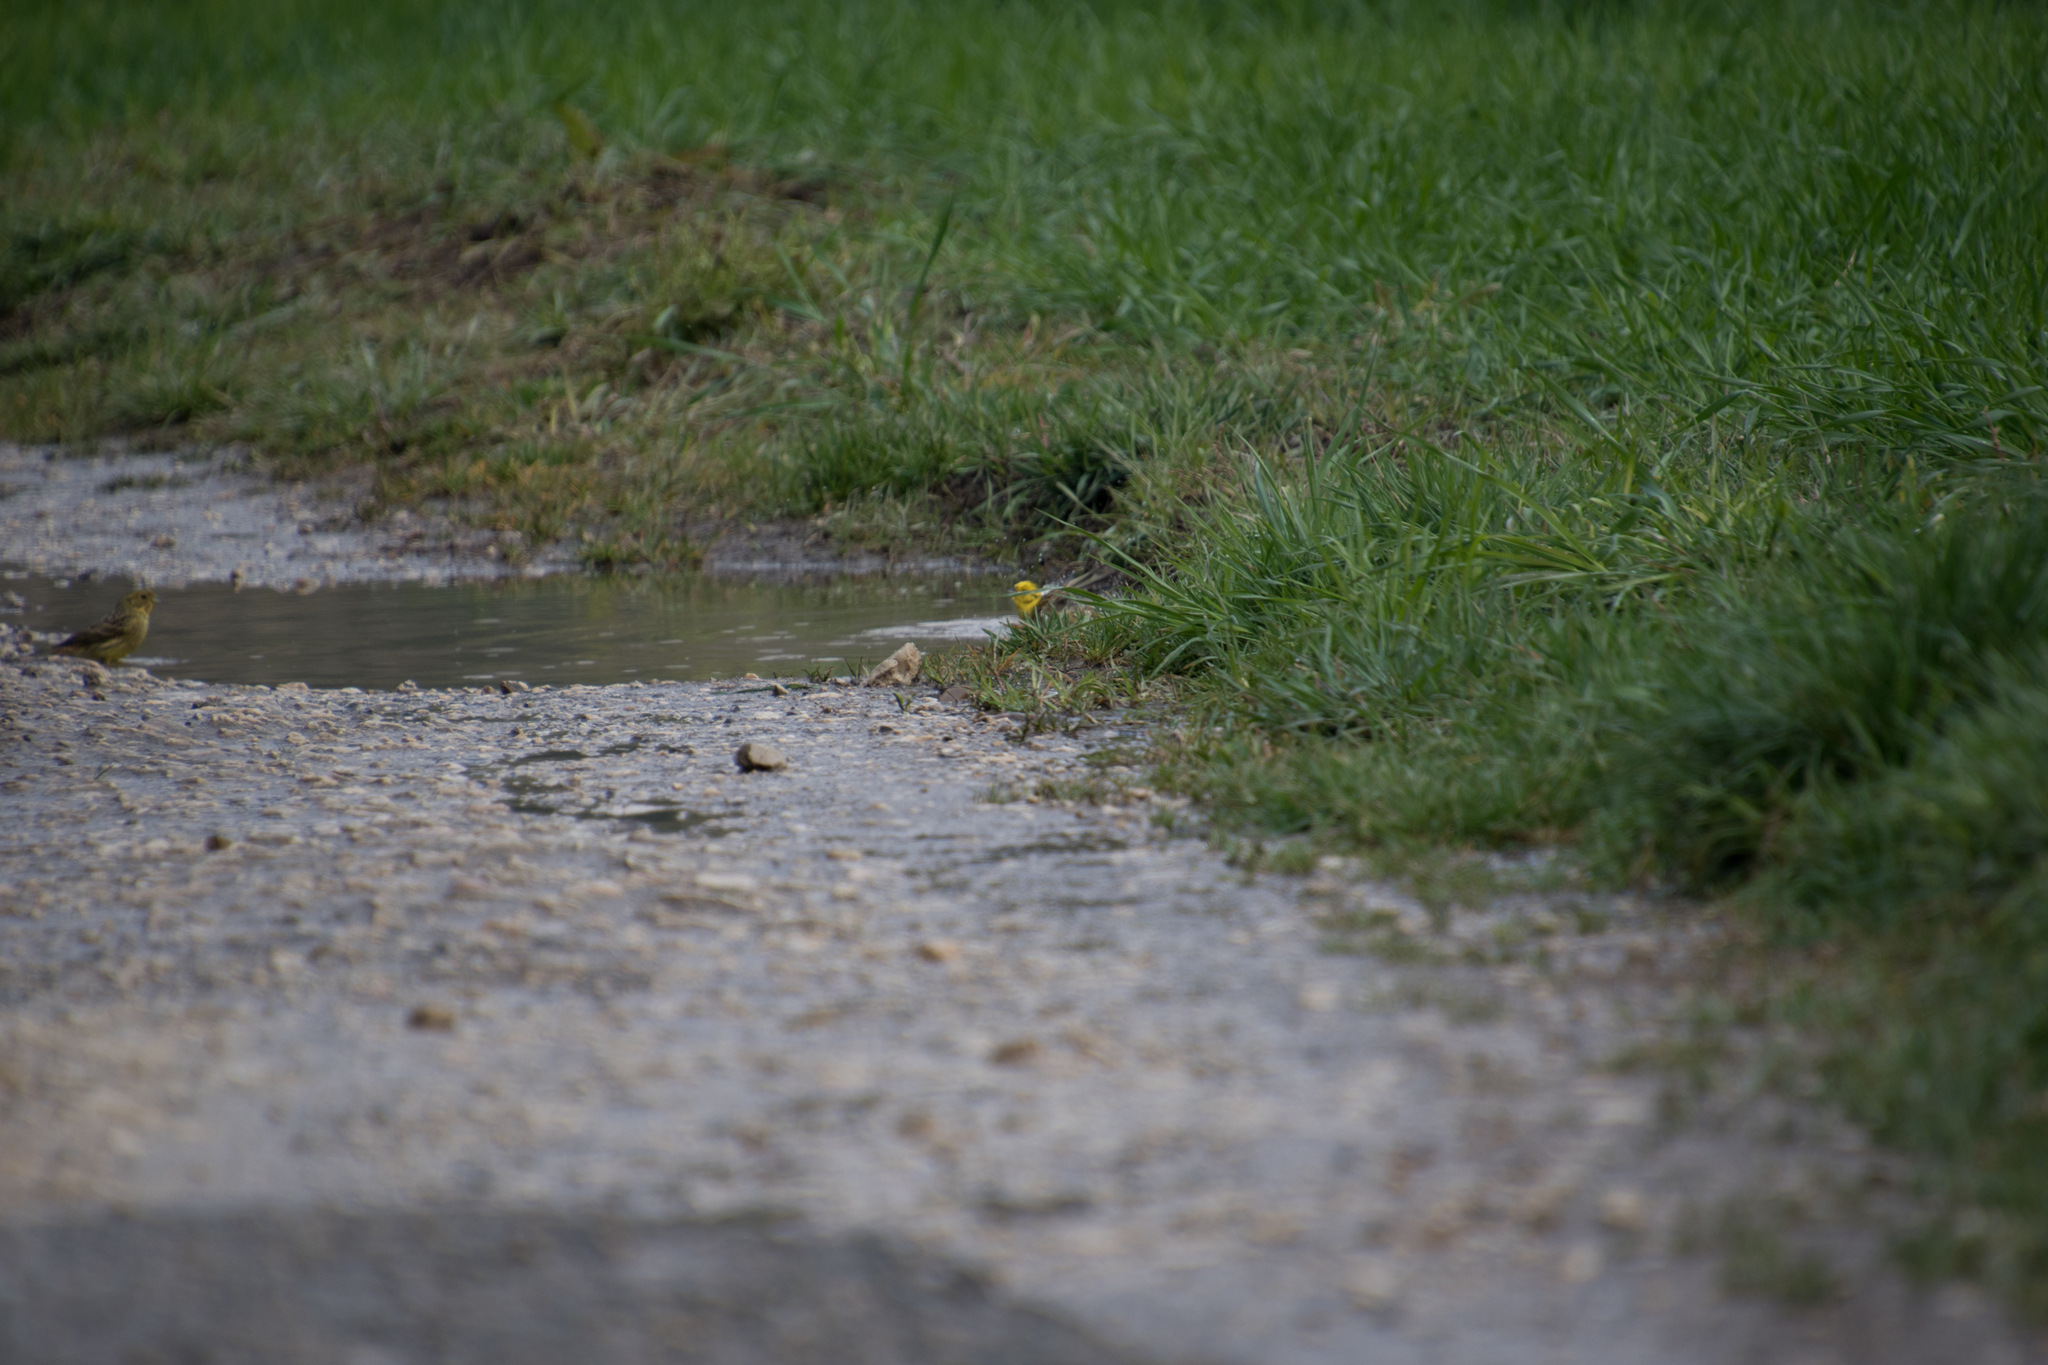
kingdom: Animalia
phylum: Chordata
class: Aves
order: Passeriformes
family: Emberizidae
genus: Emberiza
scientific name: Emberiza citrinella
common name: Yellowhammer
